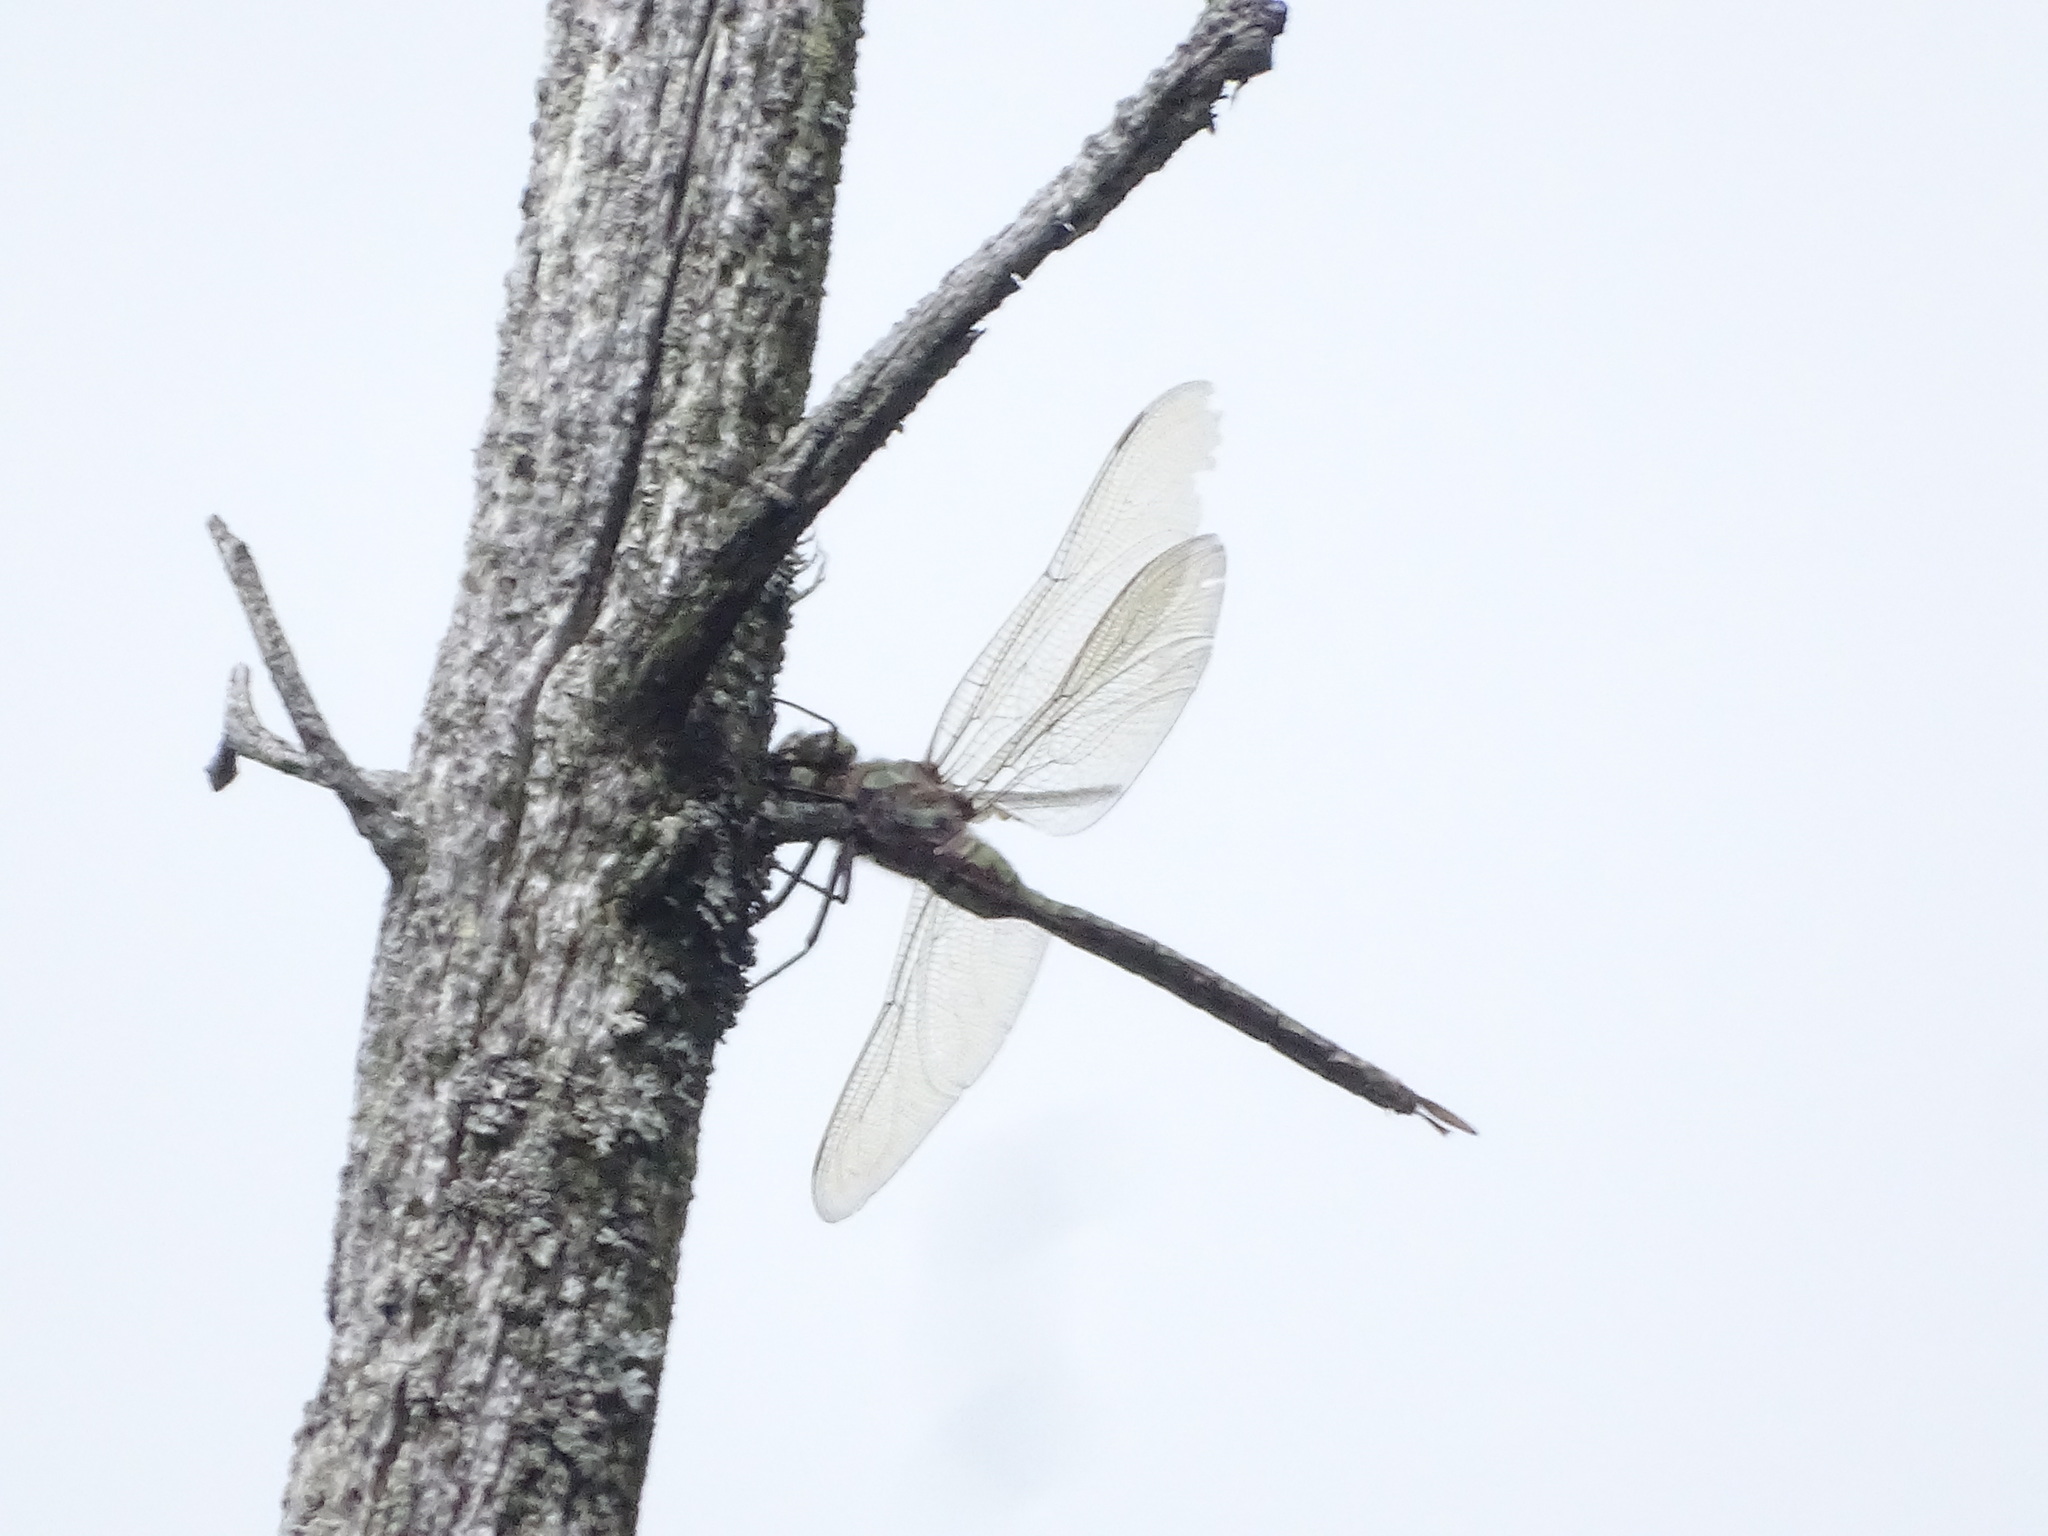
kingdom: Animalia
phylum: Arthropoda
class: Insecta
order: Odonata
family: Aeshnidae
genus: Aeshna
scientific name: Aeshna eremita
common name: Lake darner
